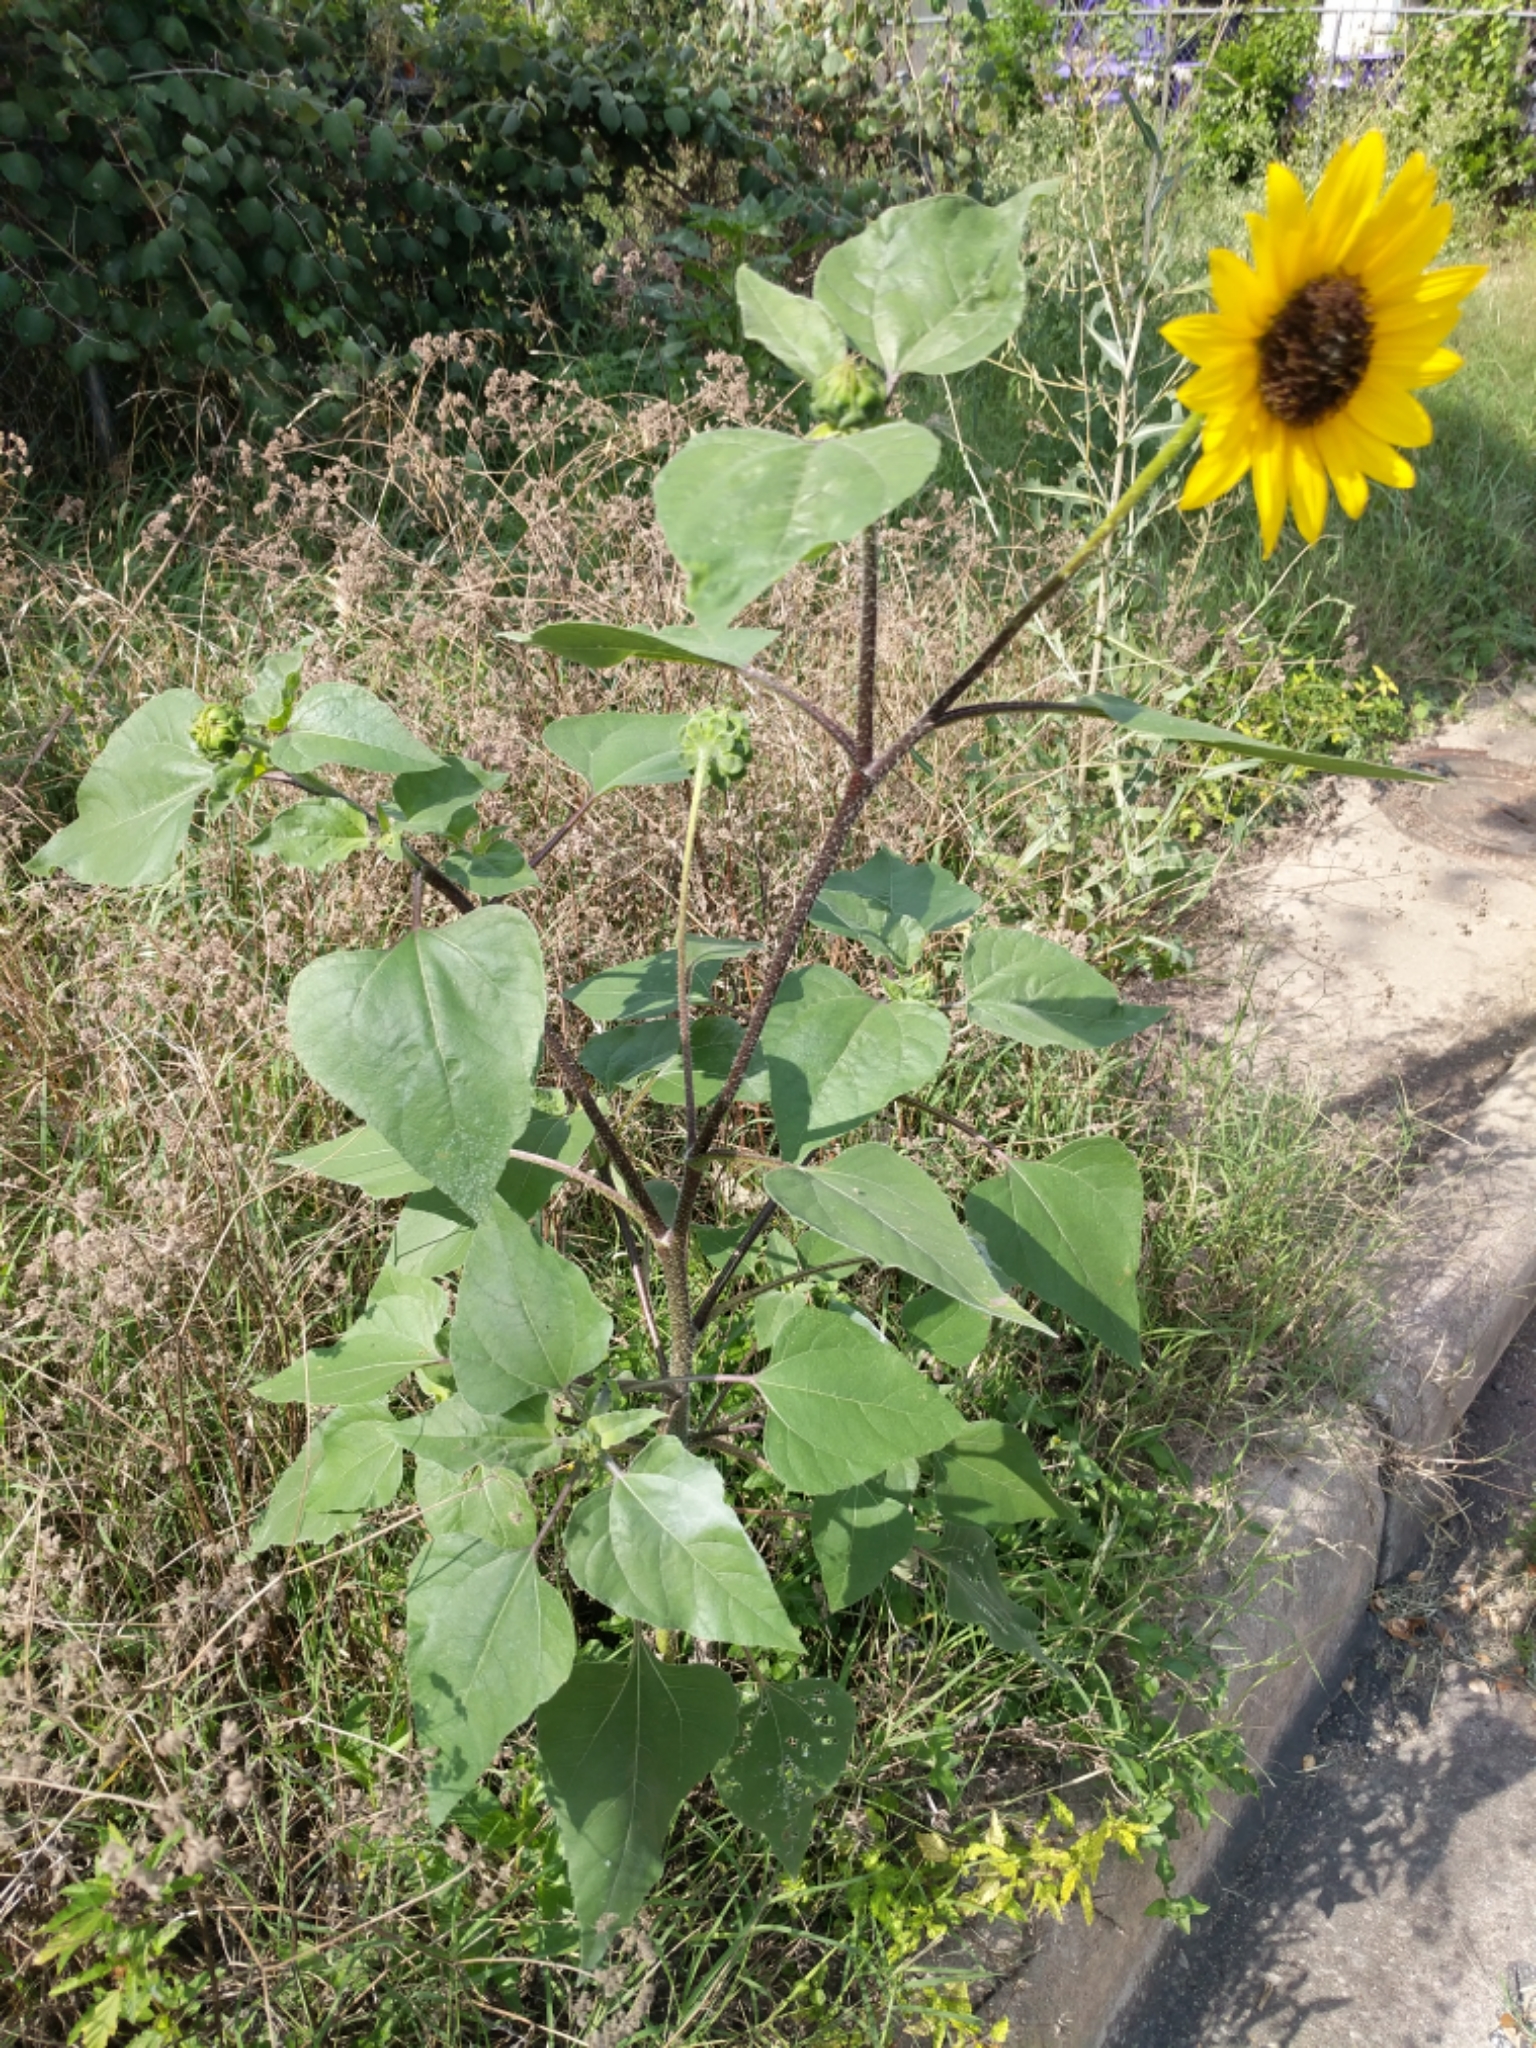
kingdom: Plantae
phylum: Tracheophyta
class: Magnoliopsida
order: Asterales
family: Asteraceae
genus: Helianthus
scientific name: Helianthus annuus
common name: Sunflower
